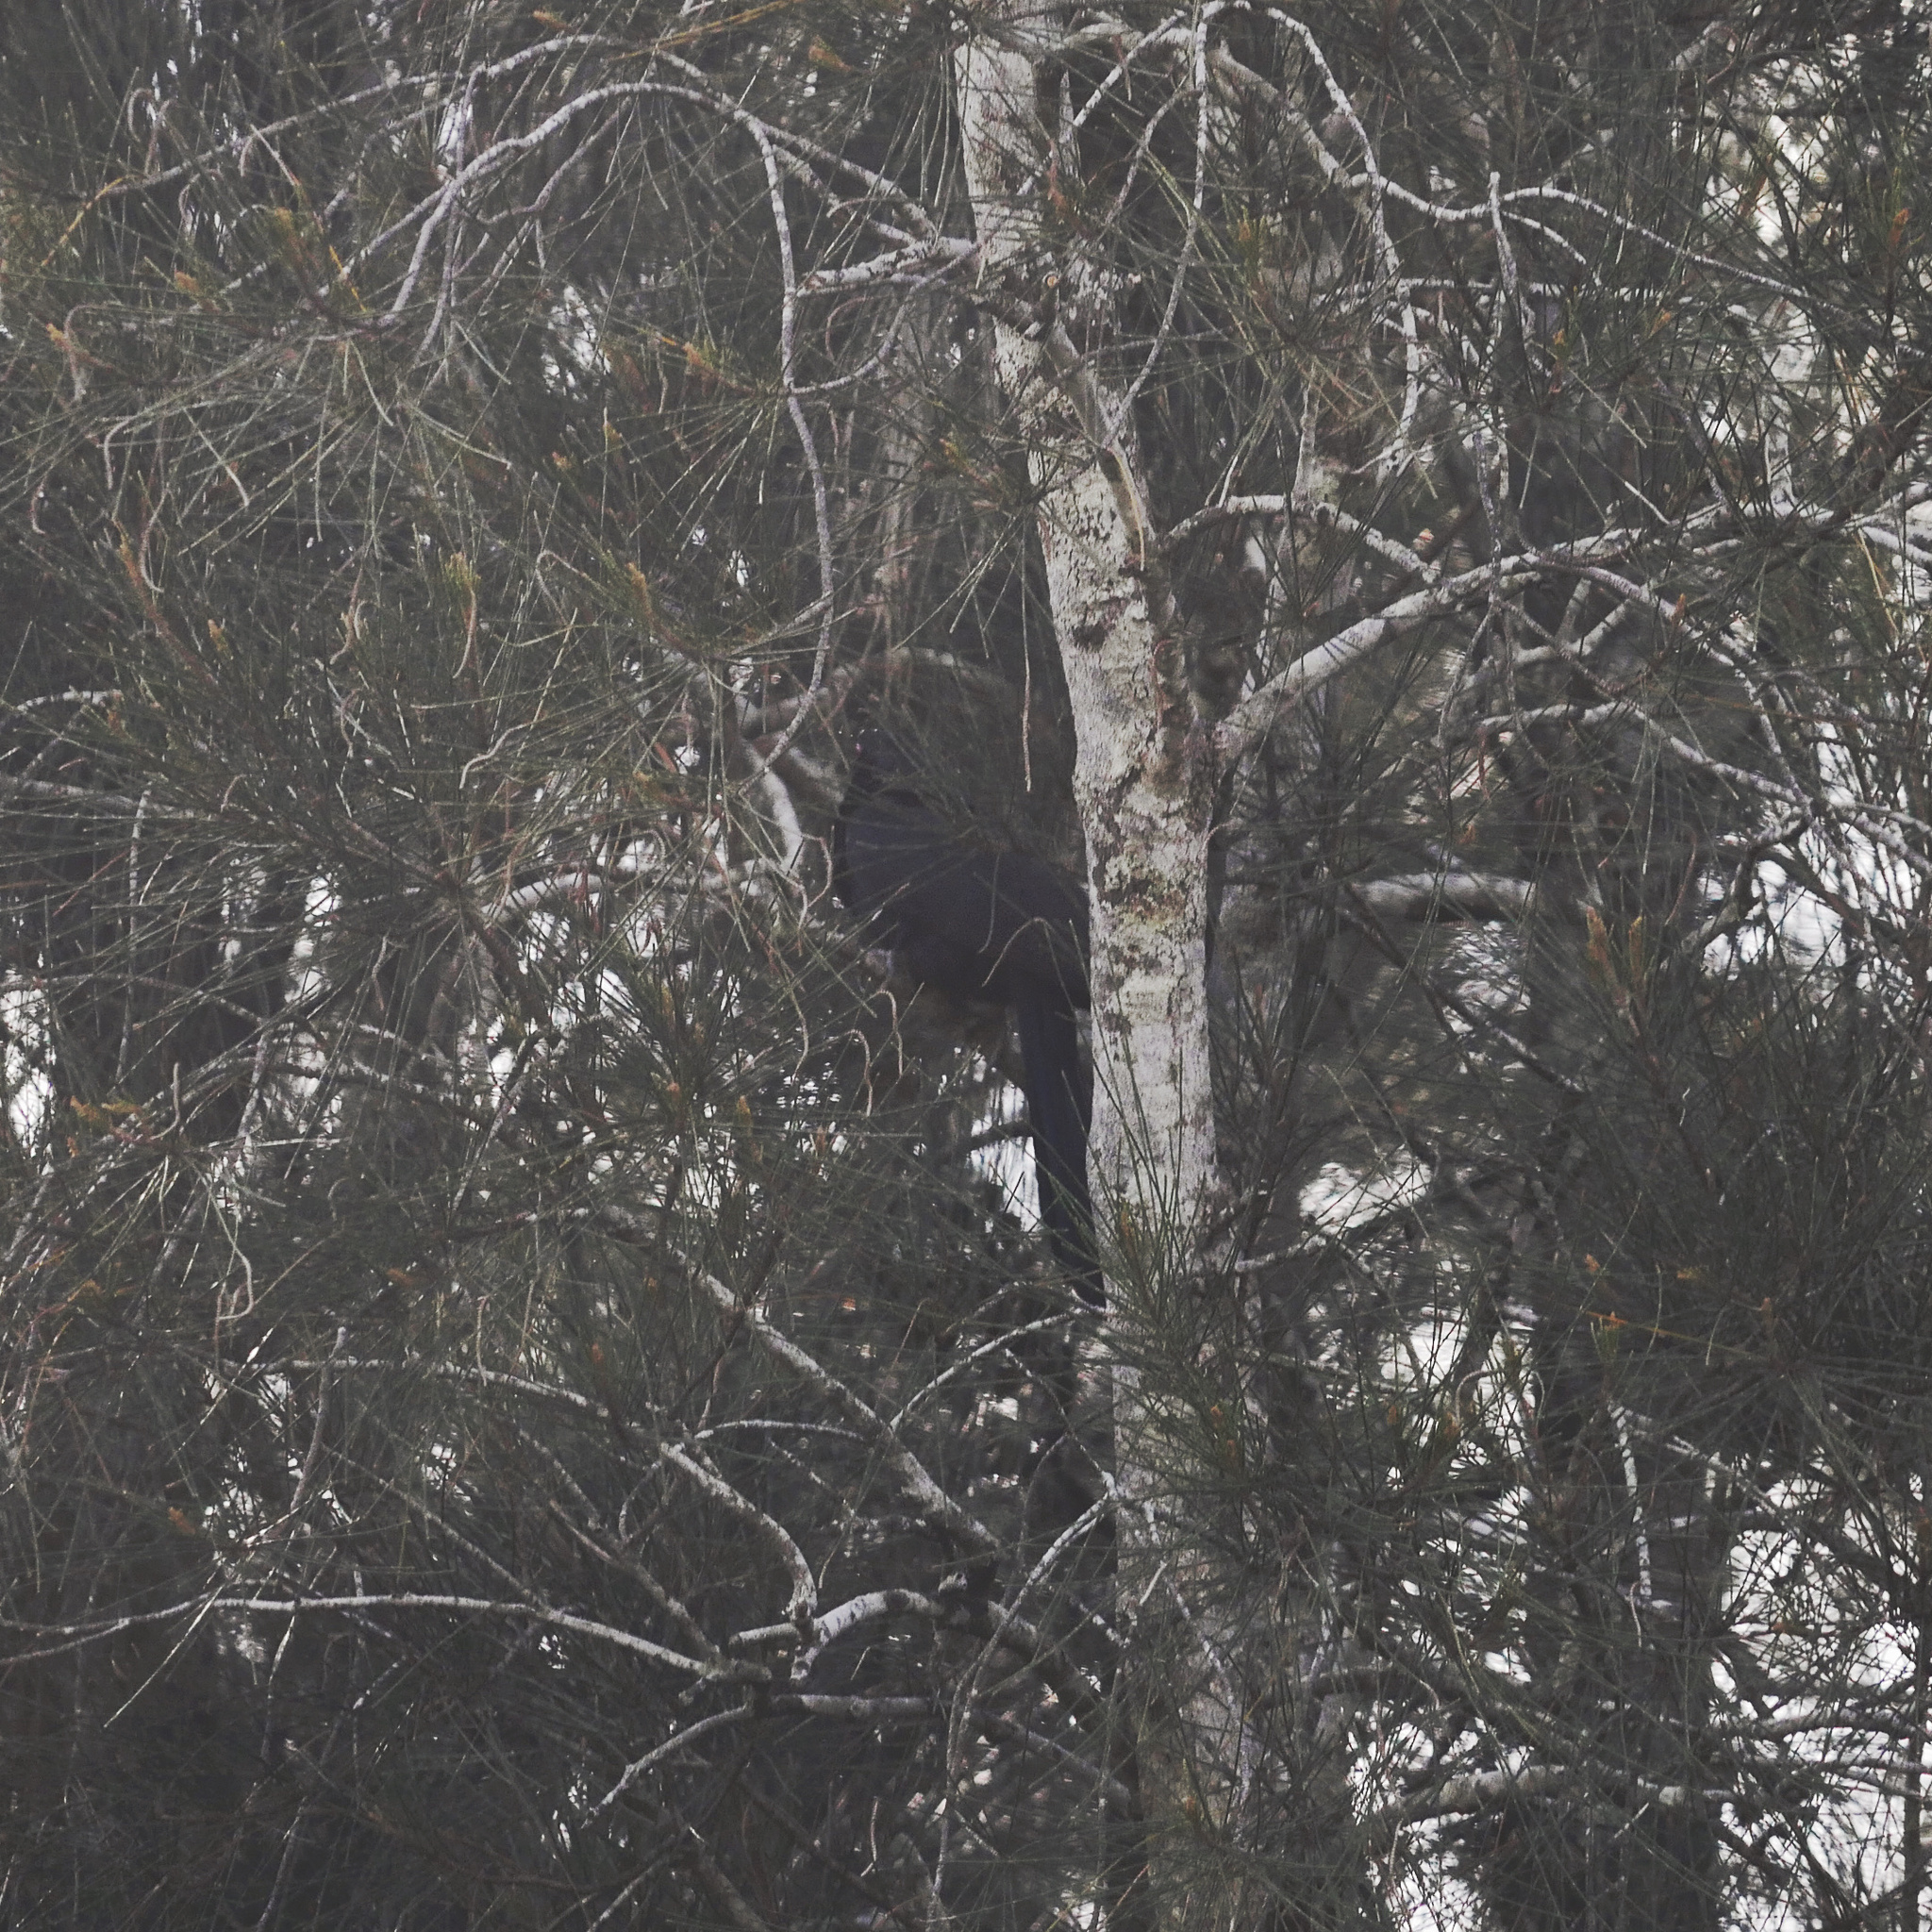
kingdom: Animalia
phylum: Chordata
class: Aves
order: Cuculiformes
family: Cuculidae
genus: Eudynamys
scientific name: Eudynamys orientalis
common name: Pacific koel
